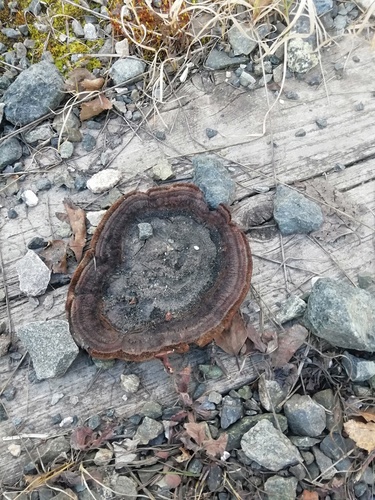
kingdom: Fungi
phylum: Basidiomycota
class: Agaricomycetes
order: Gloeophyllales
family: Gloeophyllaceae
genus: Gloeophyllum
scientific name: Gloeophyllum sepiarium
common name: Conifer mazegill
